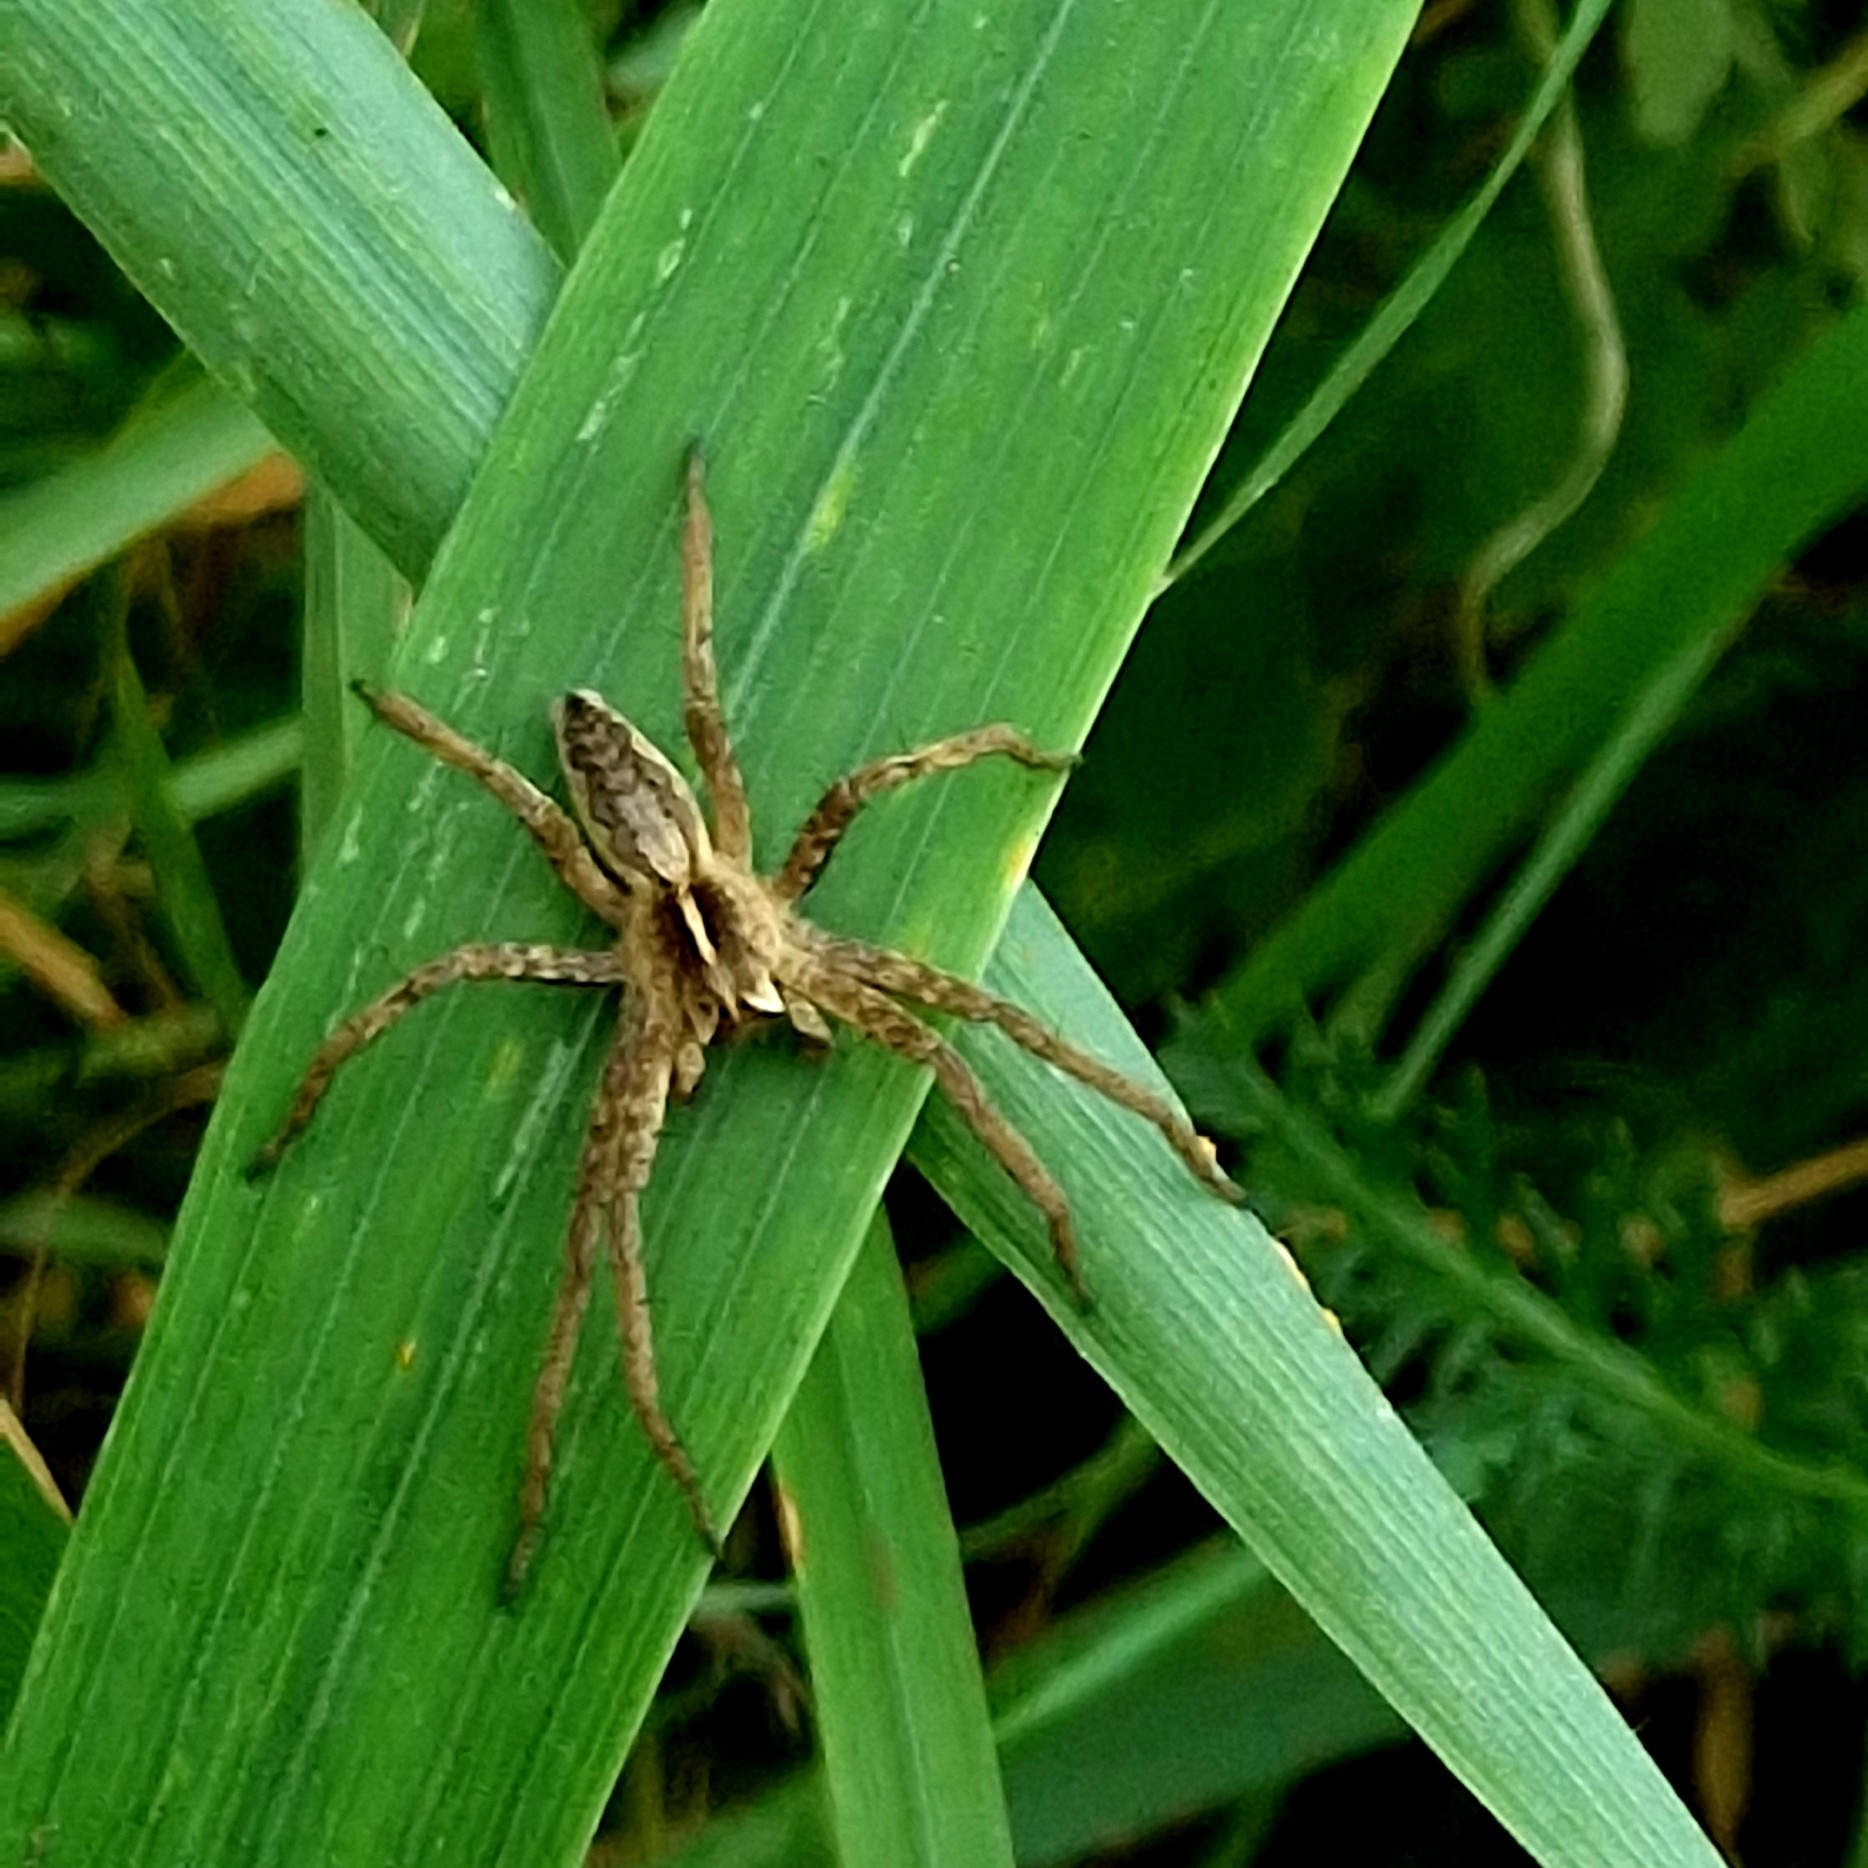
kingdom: Animalia
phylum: Arthropoda
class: Arachnida
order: Araneae
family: Pisauridae
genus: Pisaura
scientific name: Pisaura mirabilis
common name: Tent spider
